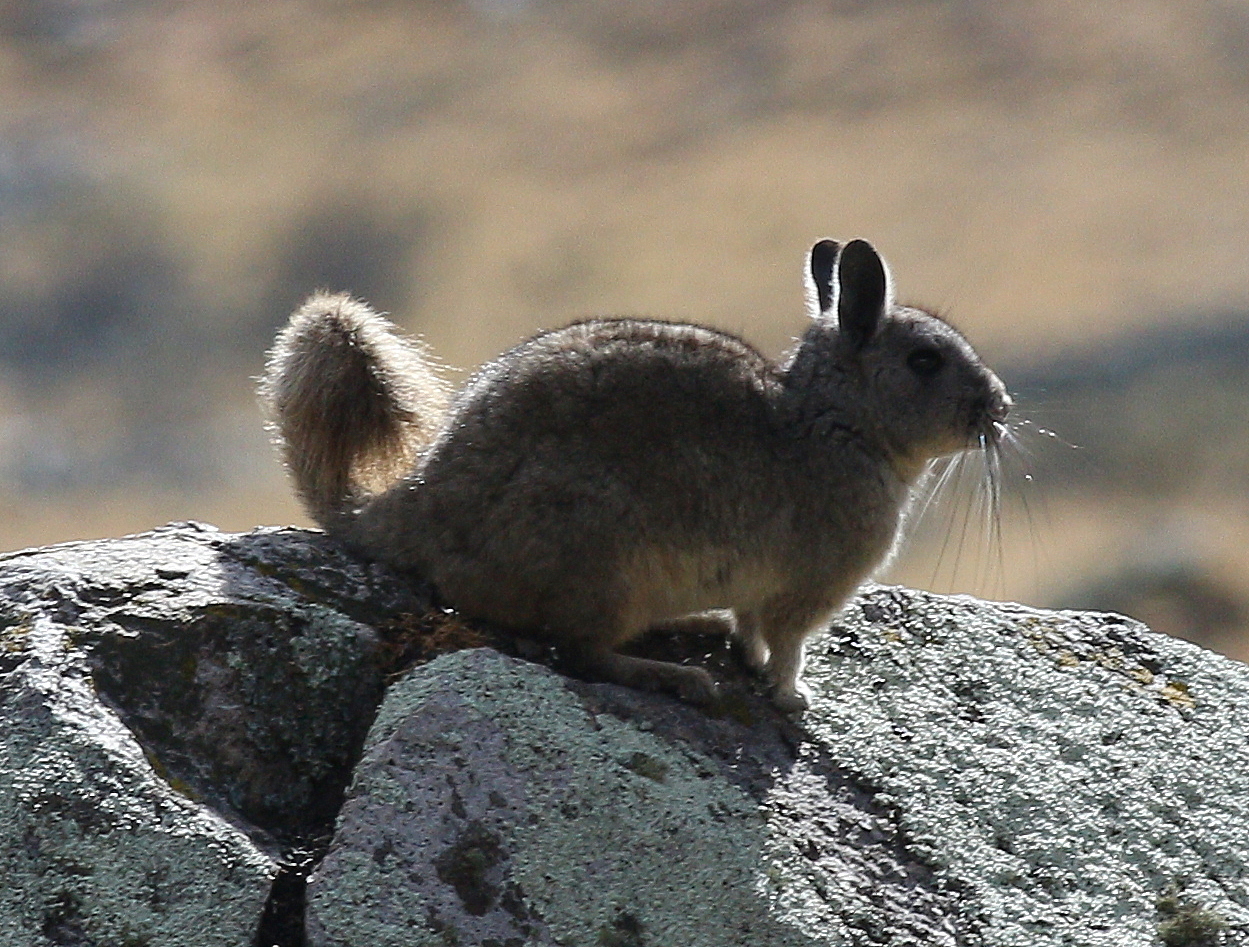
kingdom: Animalia
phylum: Chordata
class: Mammalia
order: Rodentia
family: Chinchillidae
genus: Lagidium
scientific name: Lagidium viscacia
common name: Southern viscacha
